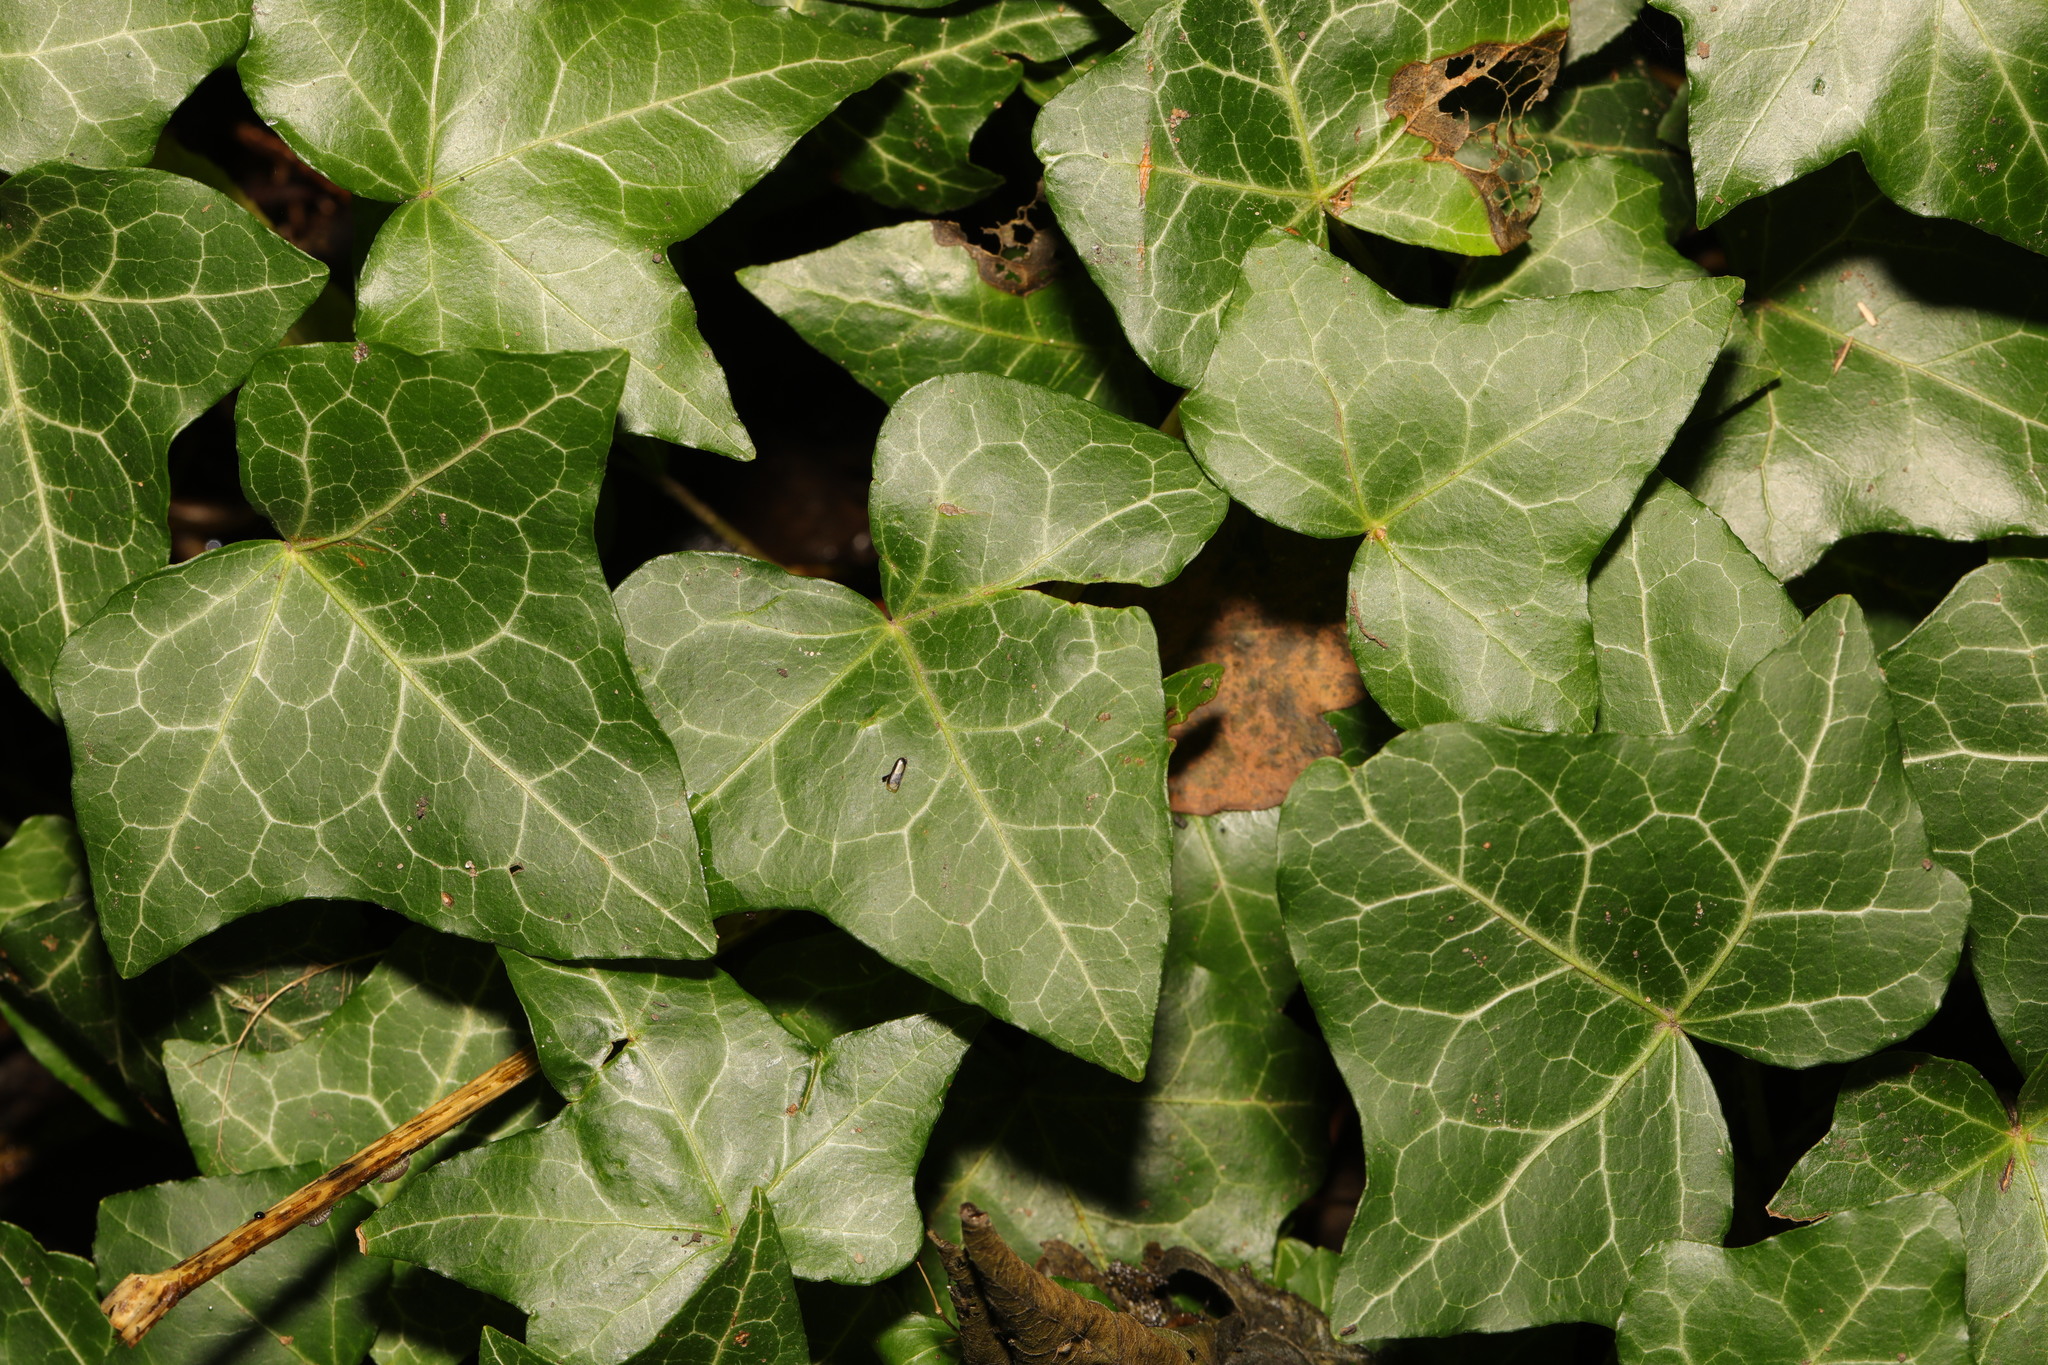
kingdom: Plantae
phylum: Tracheophyta
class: Magnoliopsida
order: Apiales
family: Araliaceae
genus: Hedera
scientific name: Hedera helix
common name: Ivy
